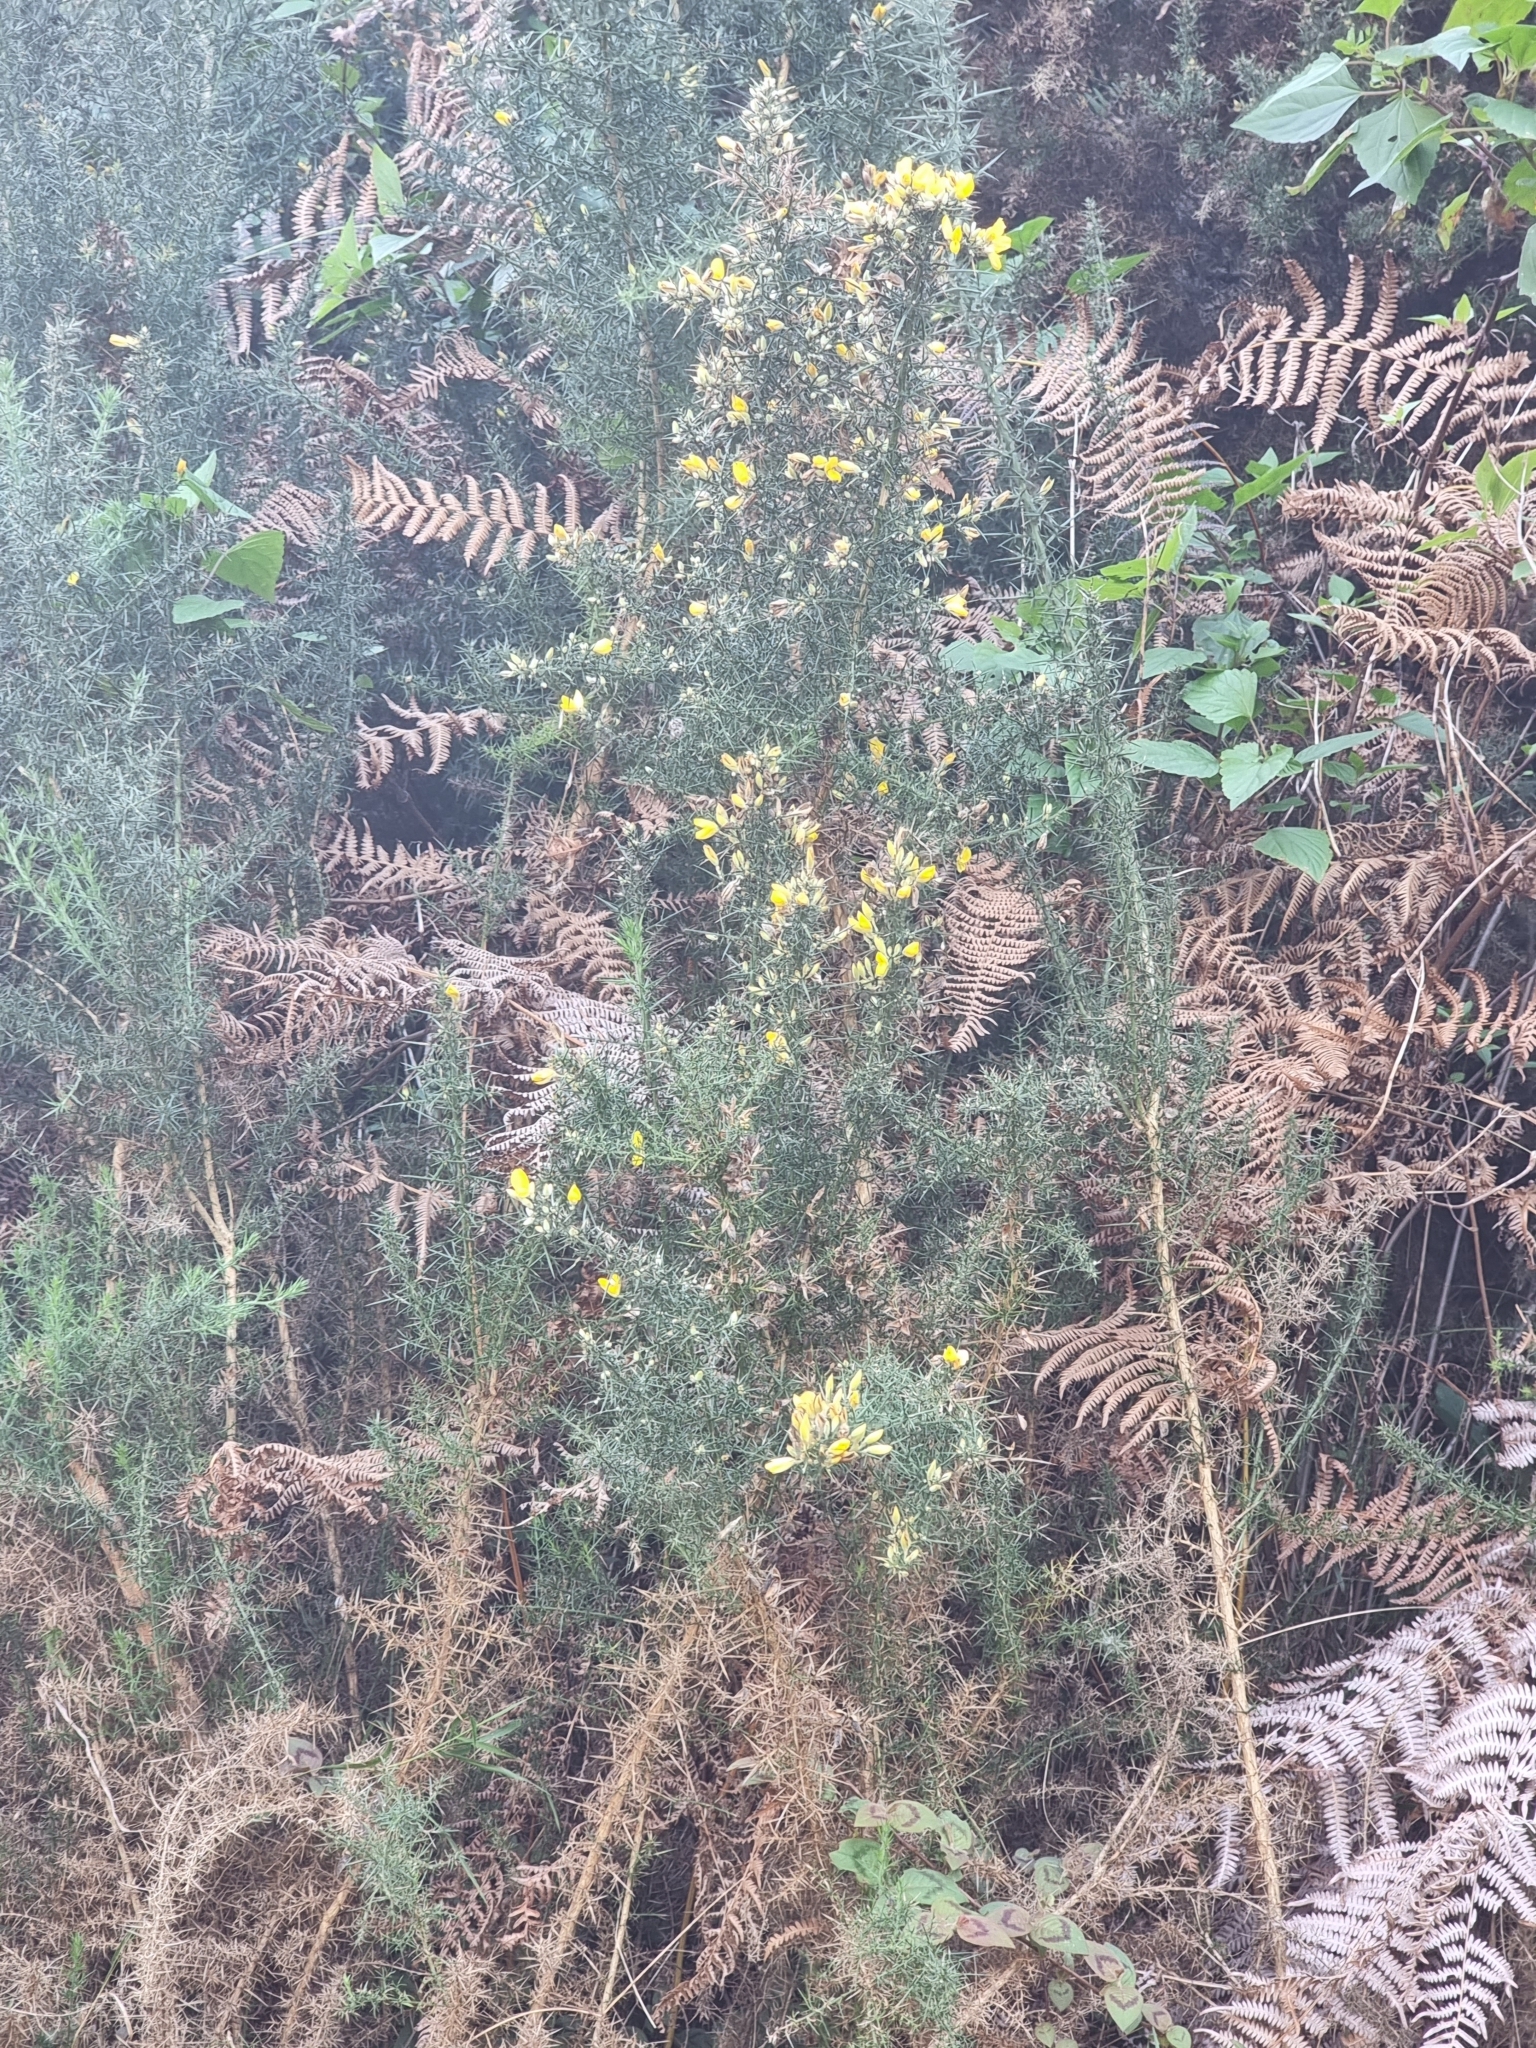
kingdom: Plantae
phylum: Tracheophyta
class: Magnoliopsida
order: Fabales
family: Fabaceae
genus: Ulex
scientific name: Ulex europaeus
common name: Common gorse
